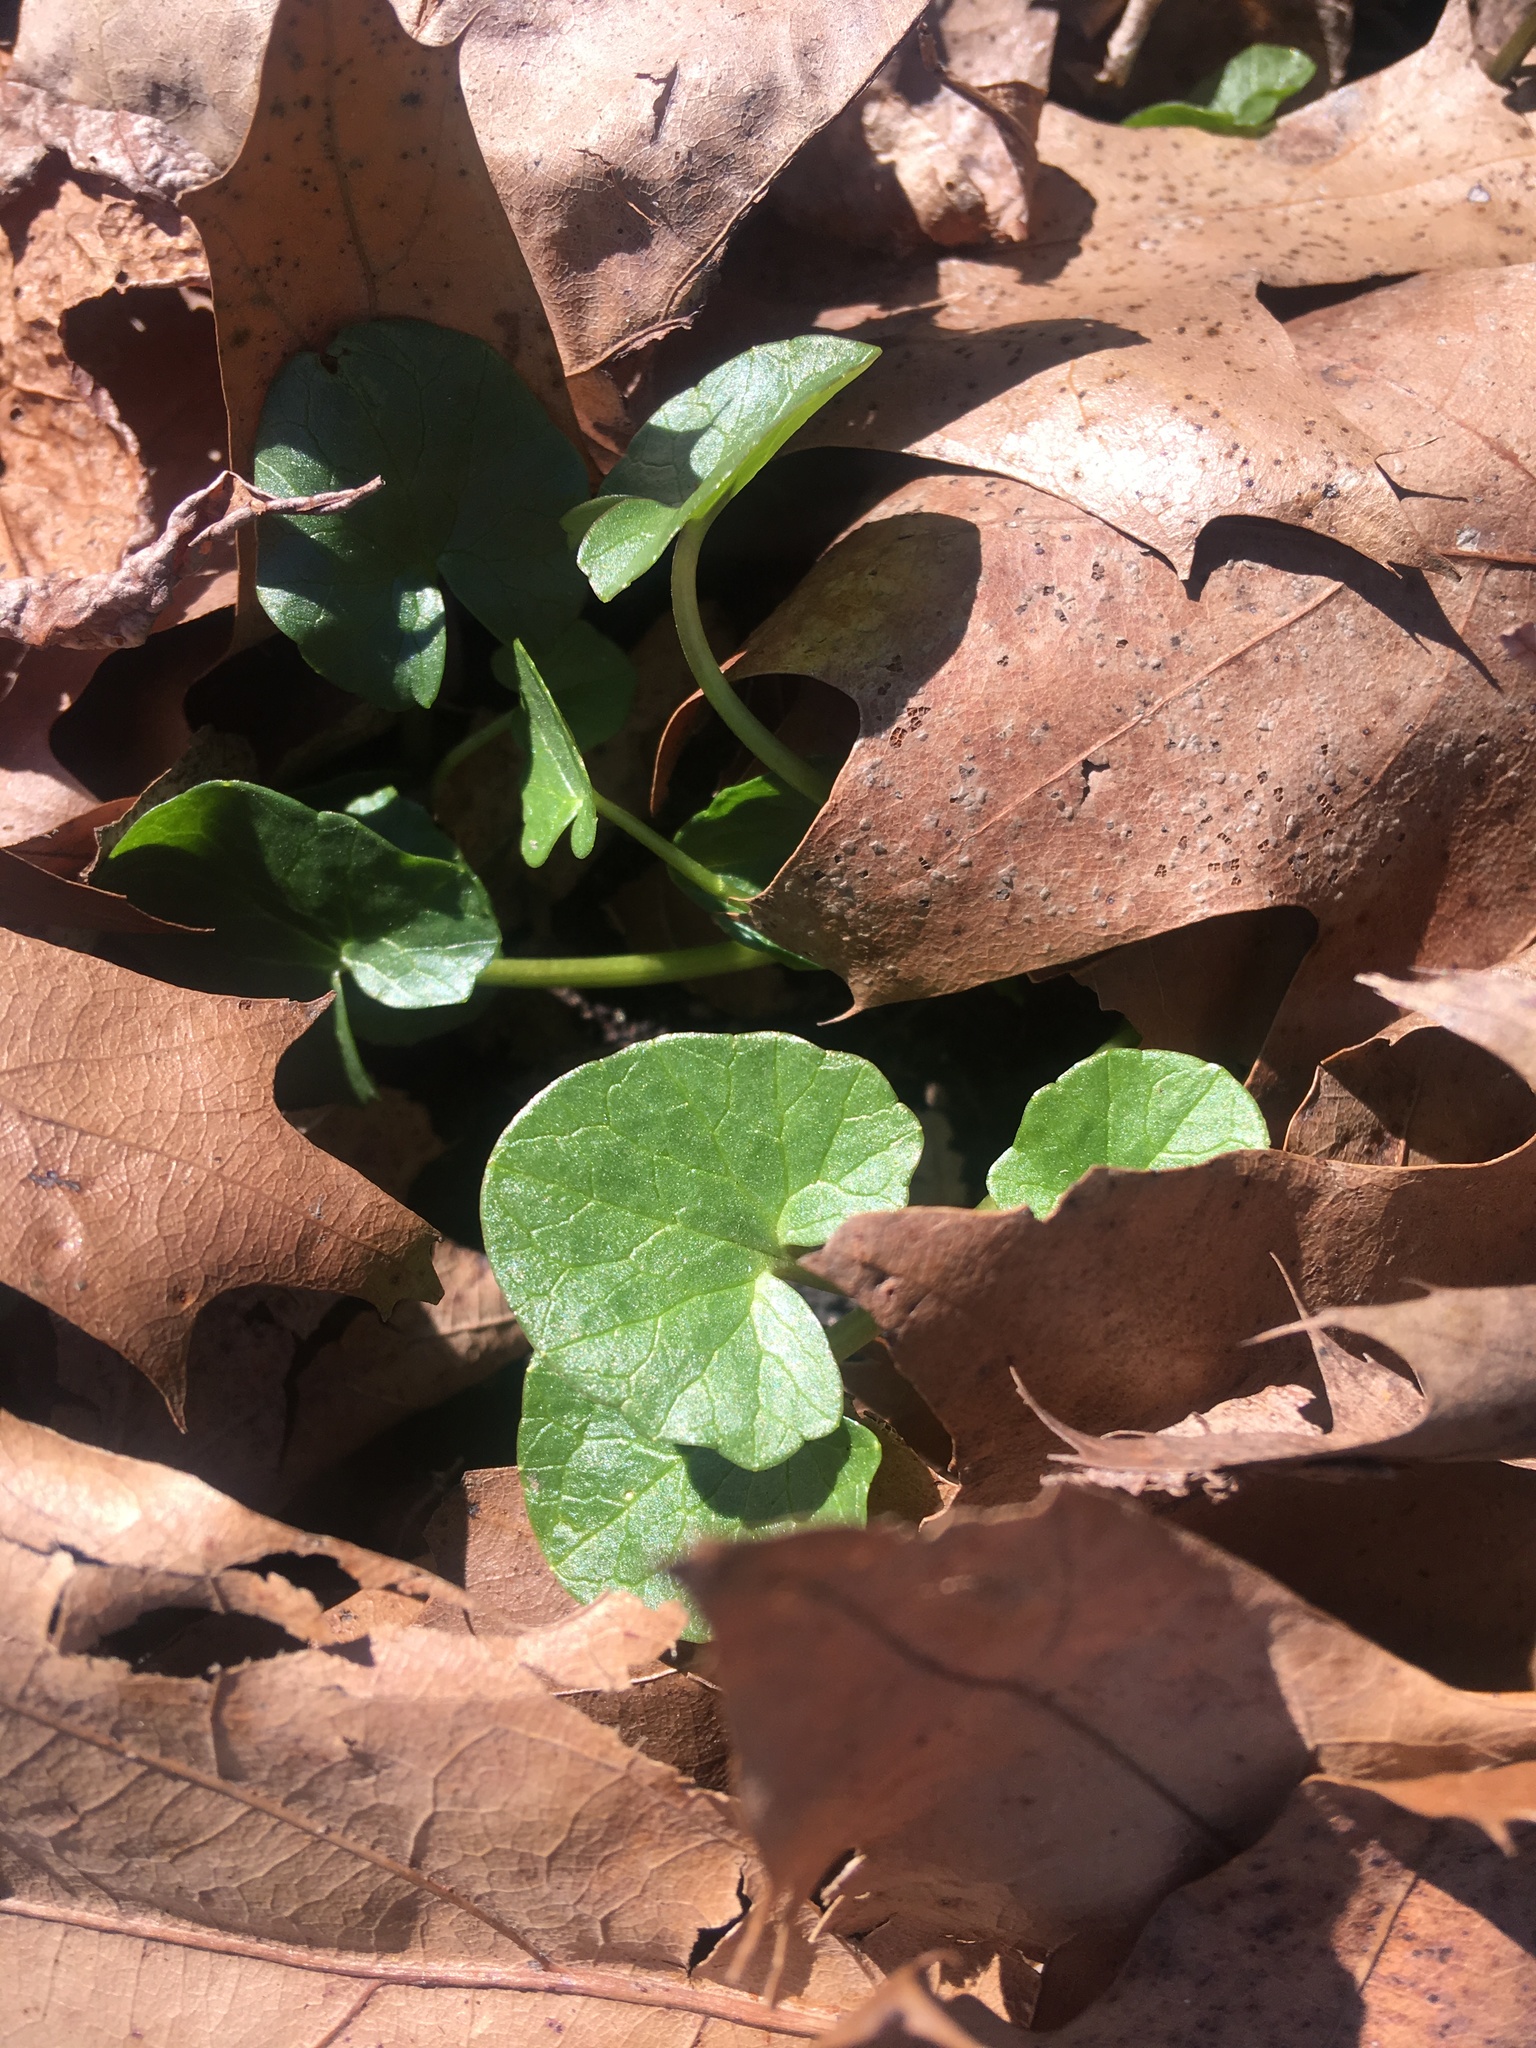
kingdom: Plantae
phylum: Tracheophyta
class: Magnoliopsida
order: Ranunculales
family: Ranunculaceae
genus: Ficaria
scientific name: Ficaria verna
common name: Lesser celandine
